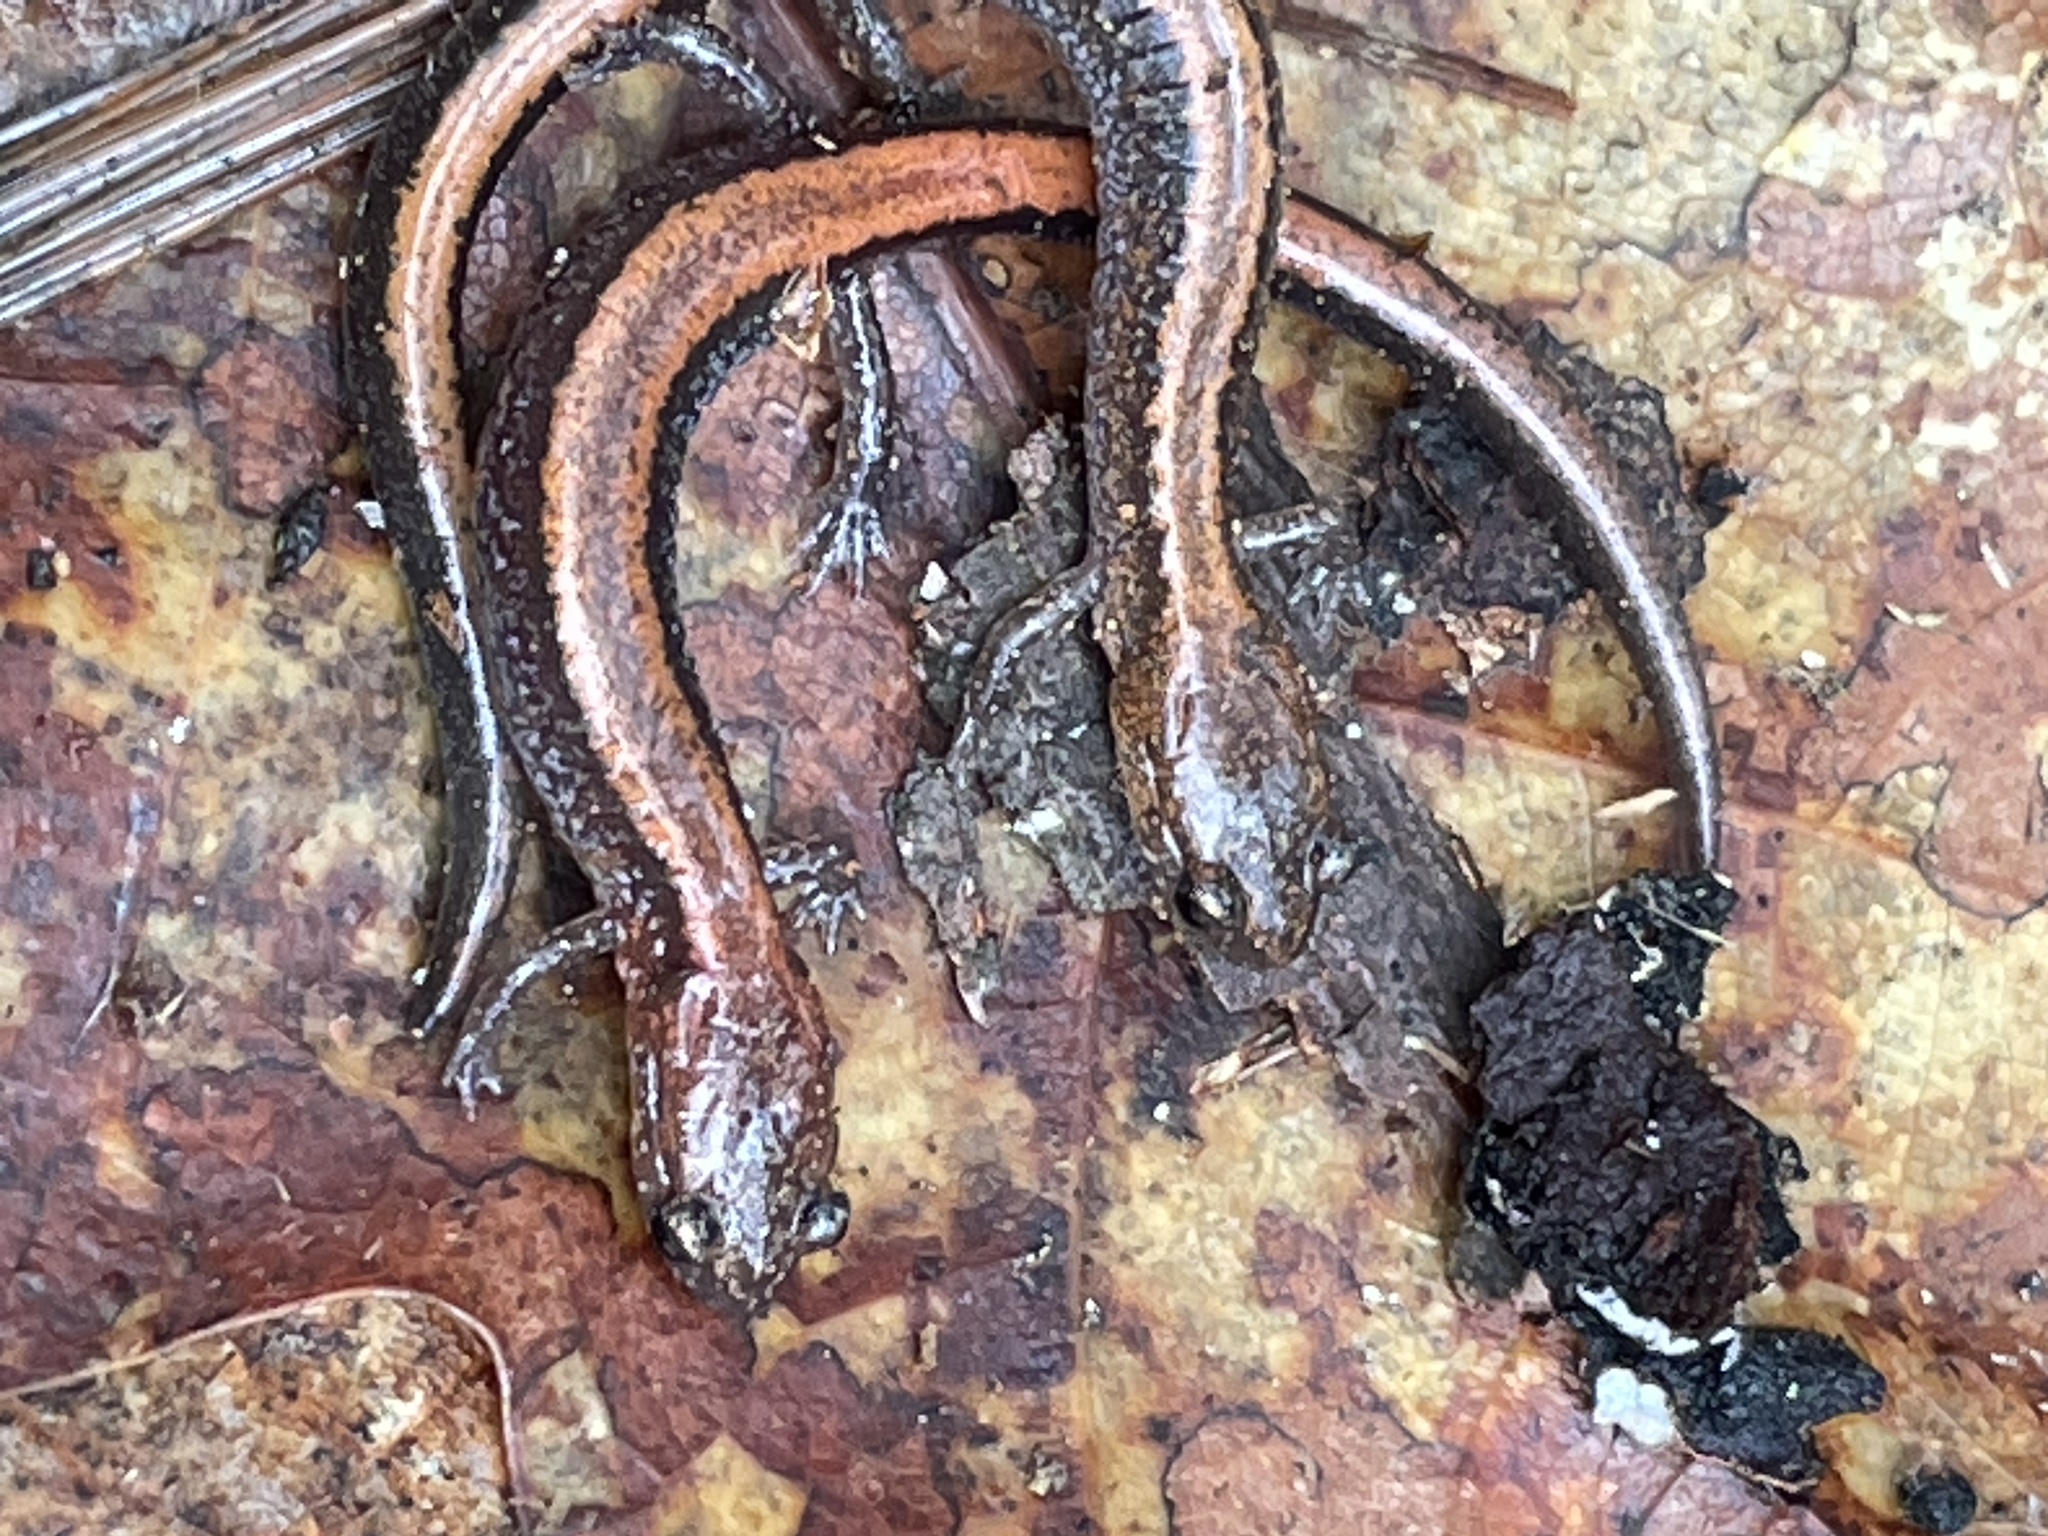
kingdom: Animalia
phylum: Chordata
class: Amphibia
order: Caudata
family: Plethodontidae
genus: Plethodon
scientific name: Plethodon cinereus
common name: Redback salamander
